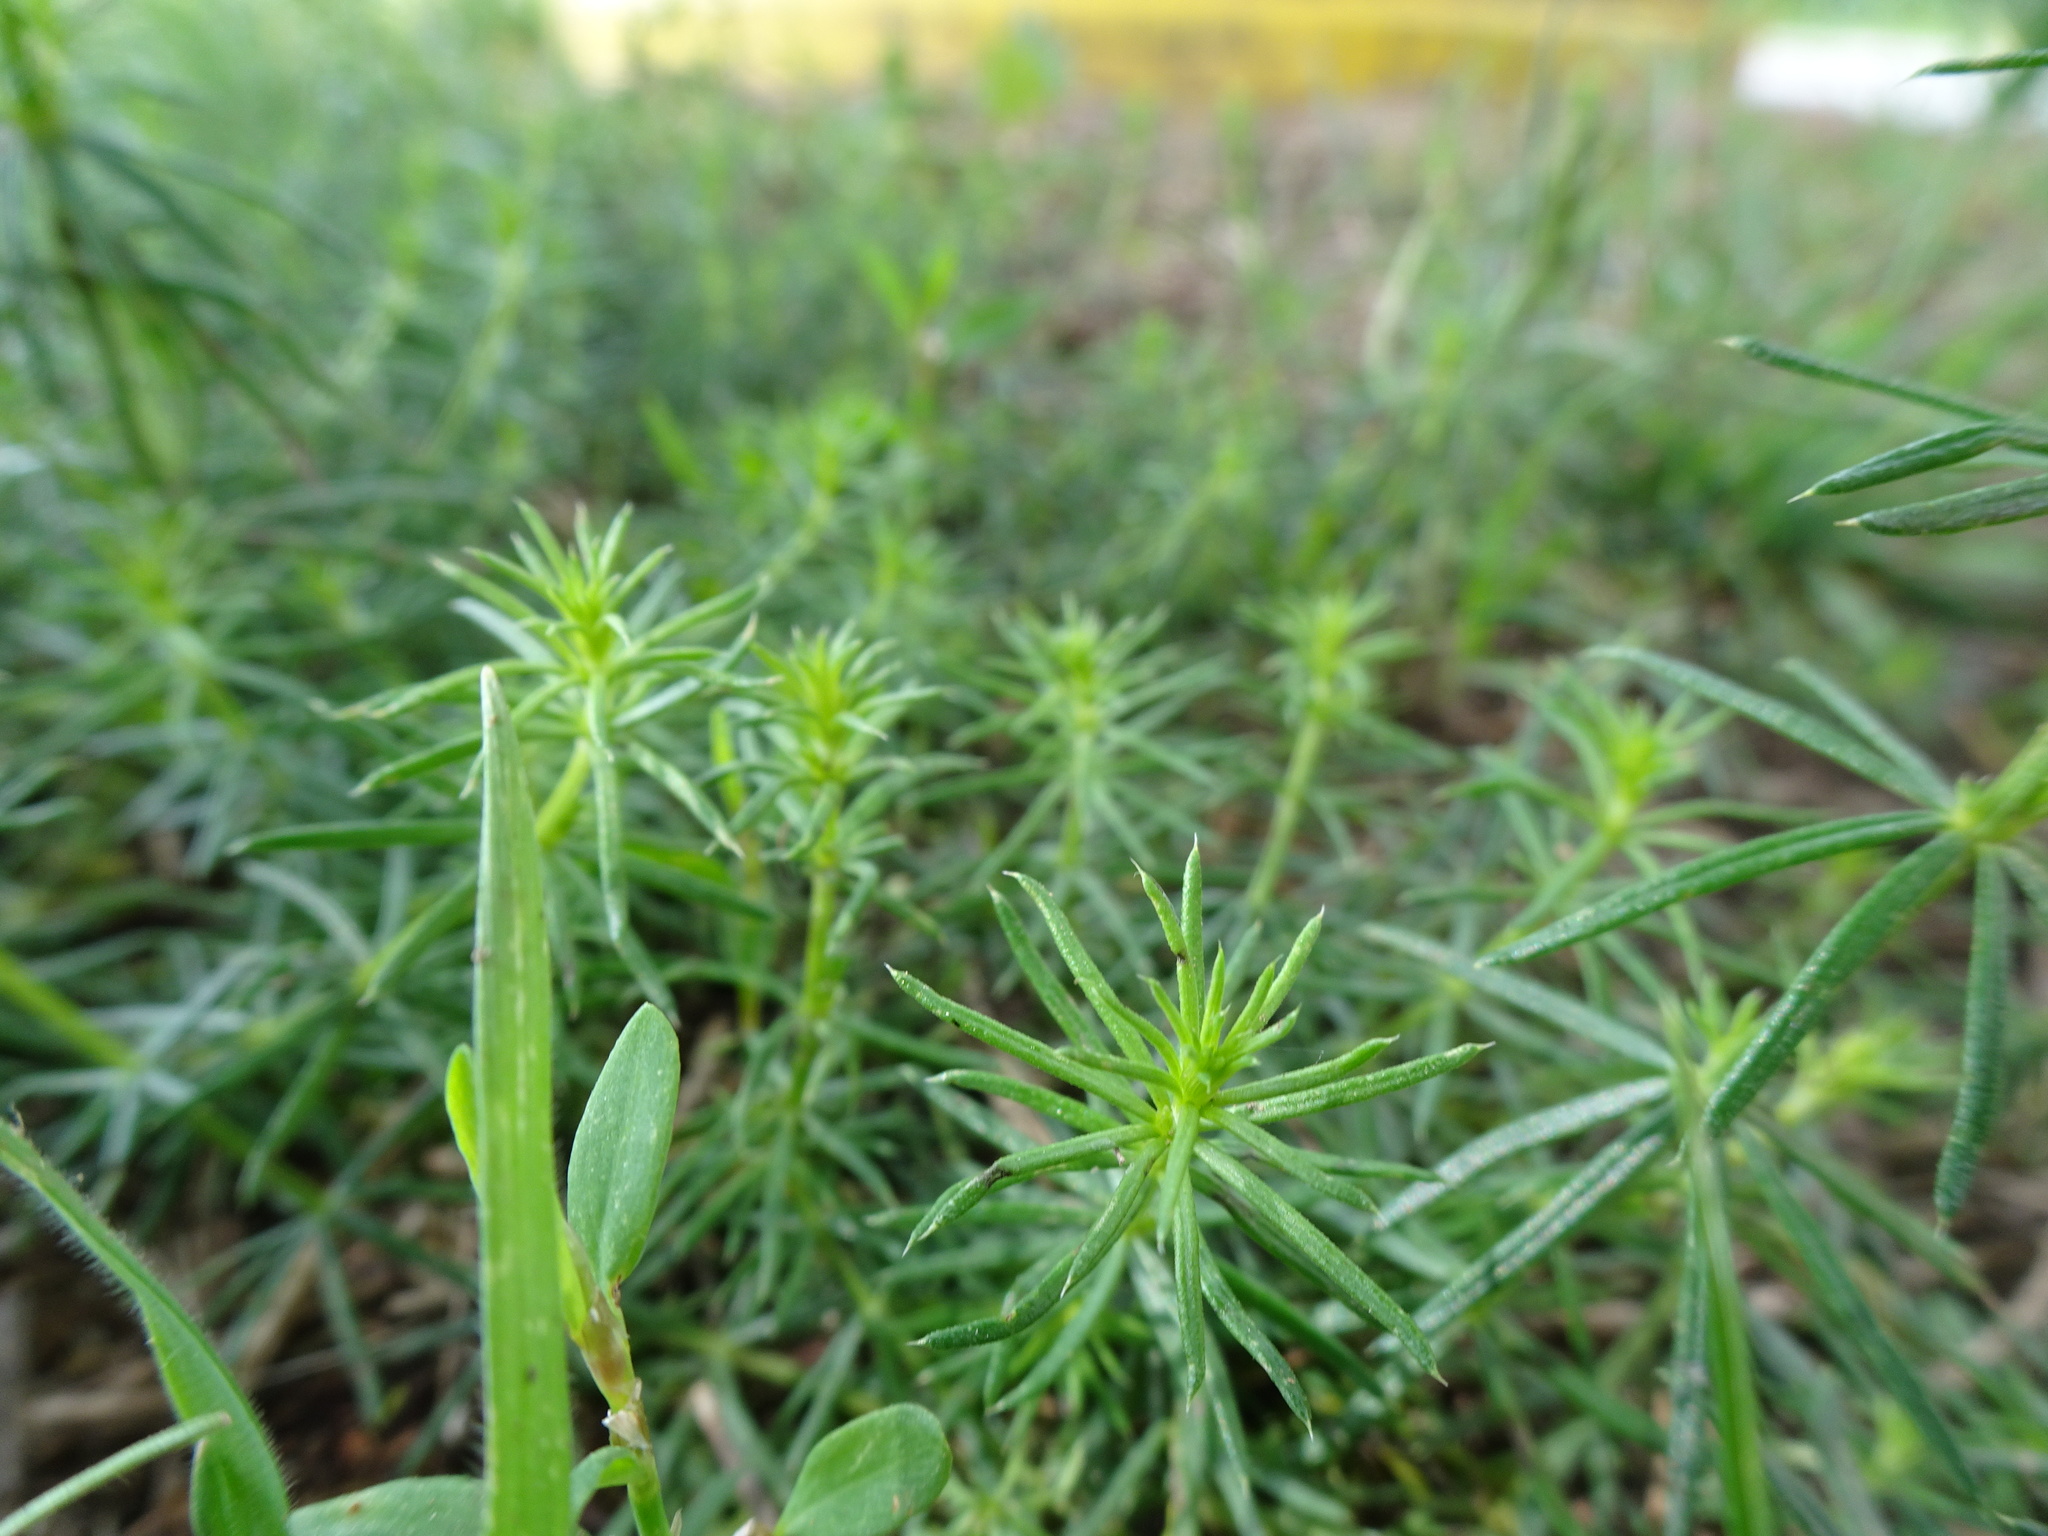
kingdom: Plantae
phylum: Tracheophyta
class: Magnoliopsida
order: Gentianales
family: Rubiaceae
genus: Galium
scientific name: Galium verum
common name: Lady's bedstraw
